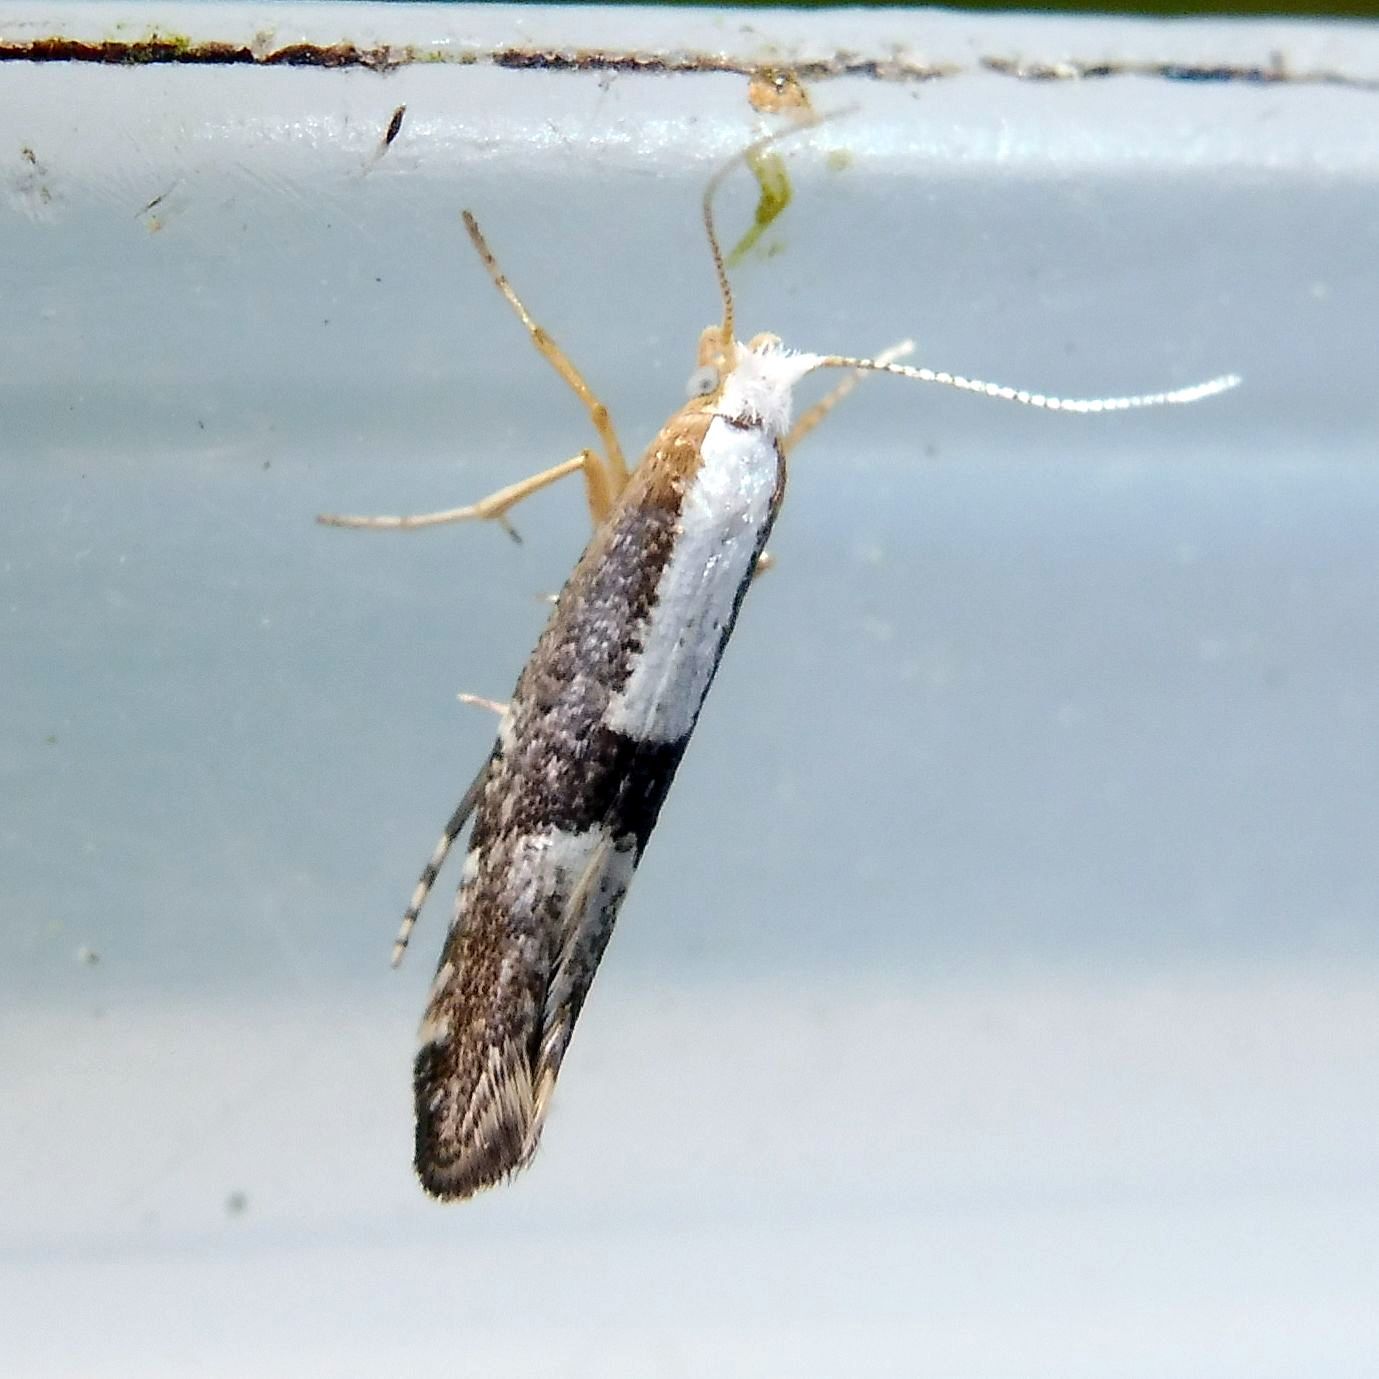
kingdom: Animalia
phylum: Arthropoda
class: Insecta
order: Lepidoptera
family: Argyresthiidae
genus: Argyresthia
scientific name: Argyresthia spinosella
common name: Blackthorn argent
